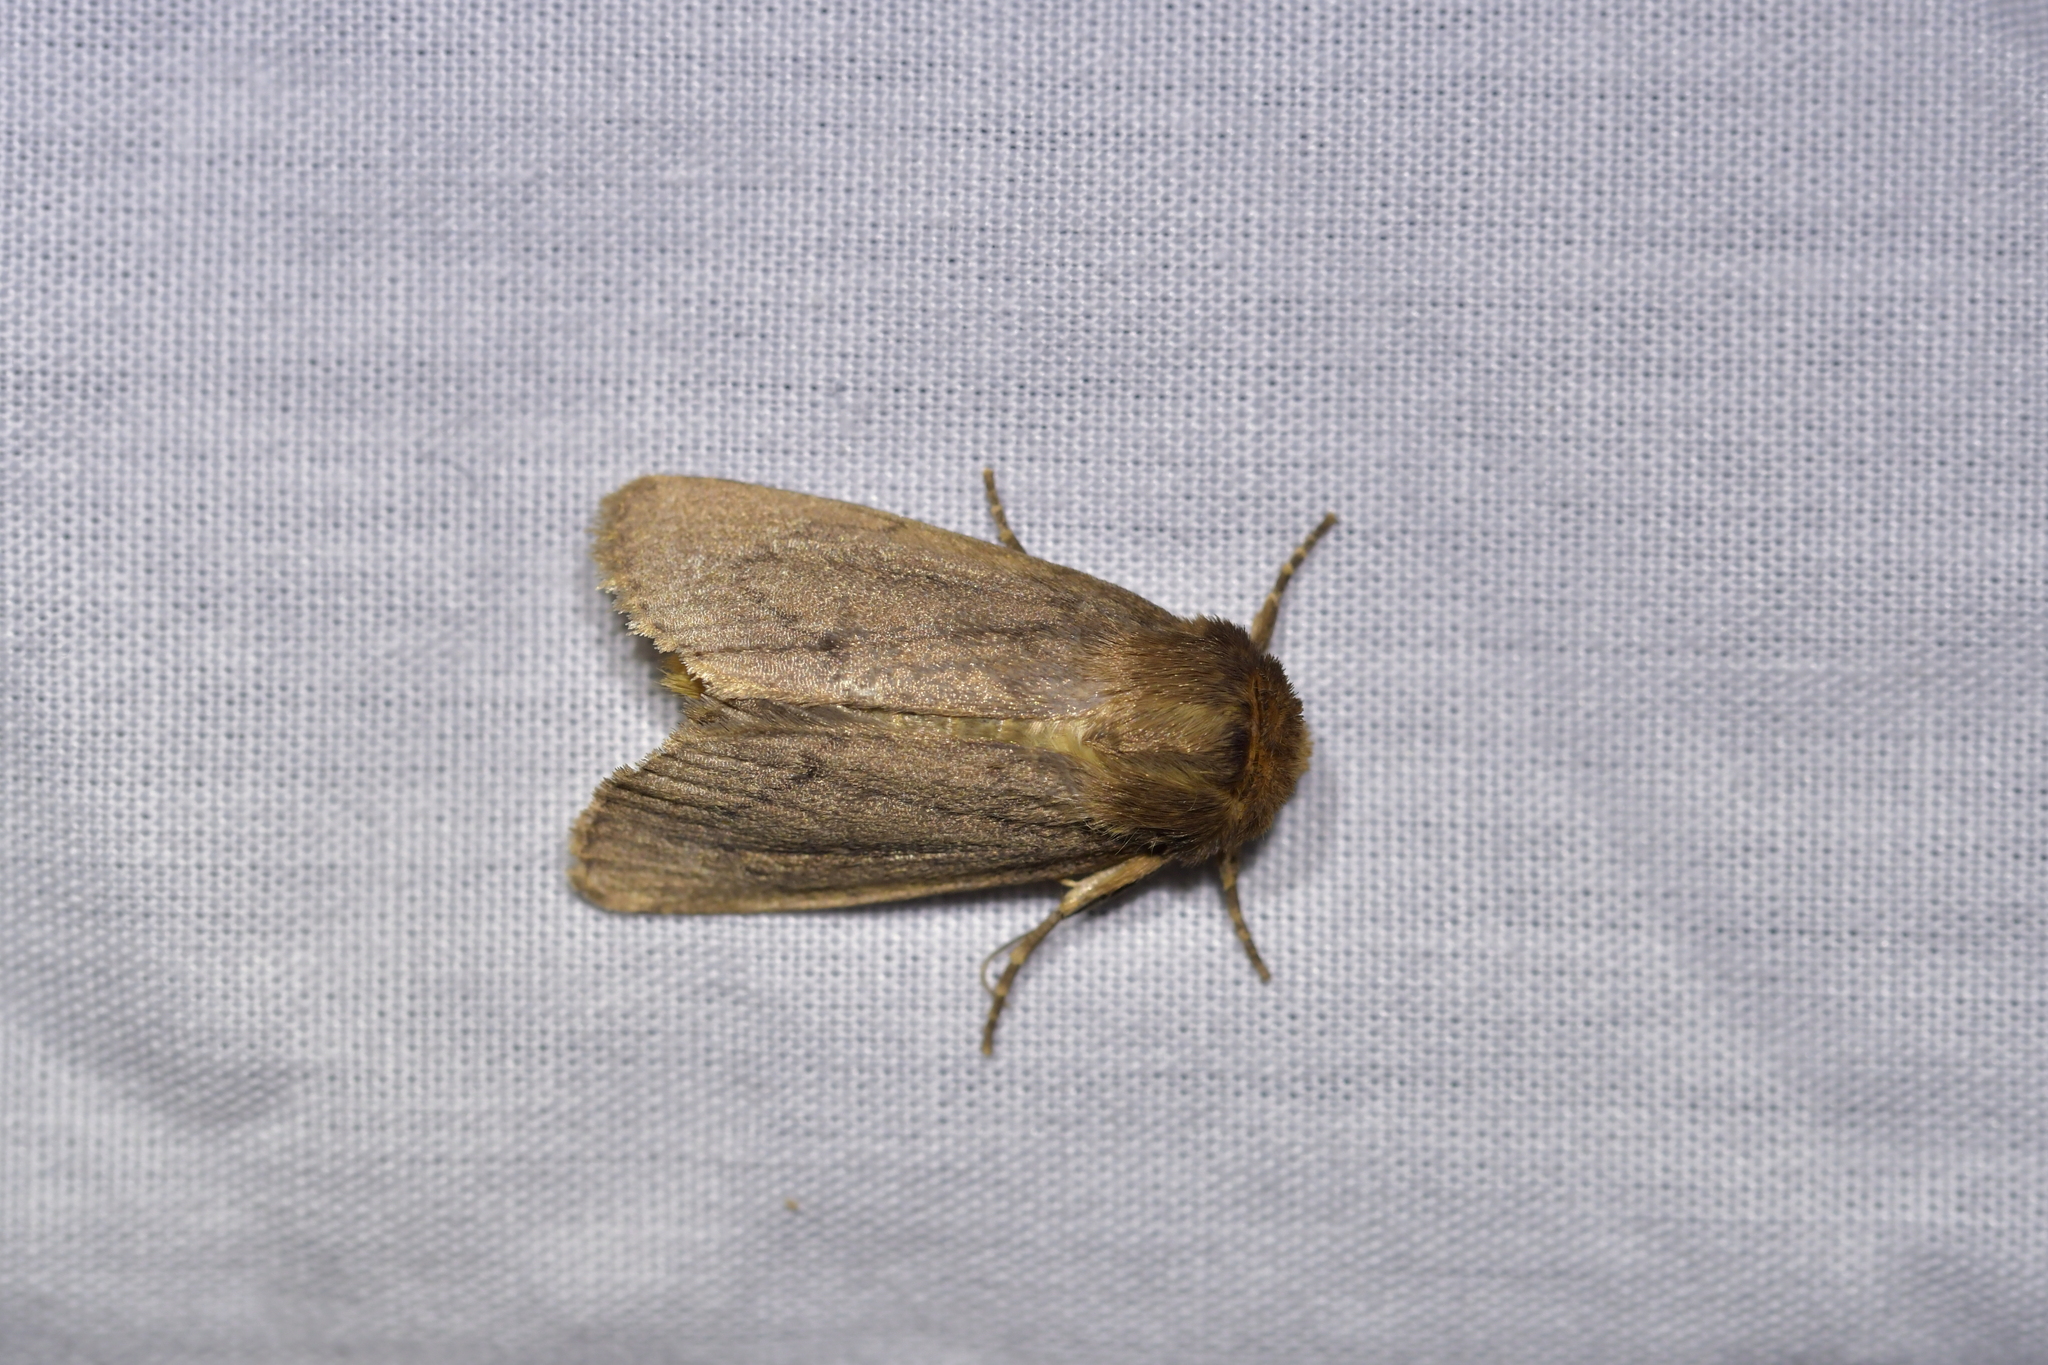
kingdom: Animalia
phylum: Arthropoda
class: Insecta
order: Lepidoptera
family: Noctuidae
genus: Bityla
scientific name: Bityla defigurata
